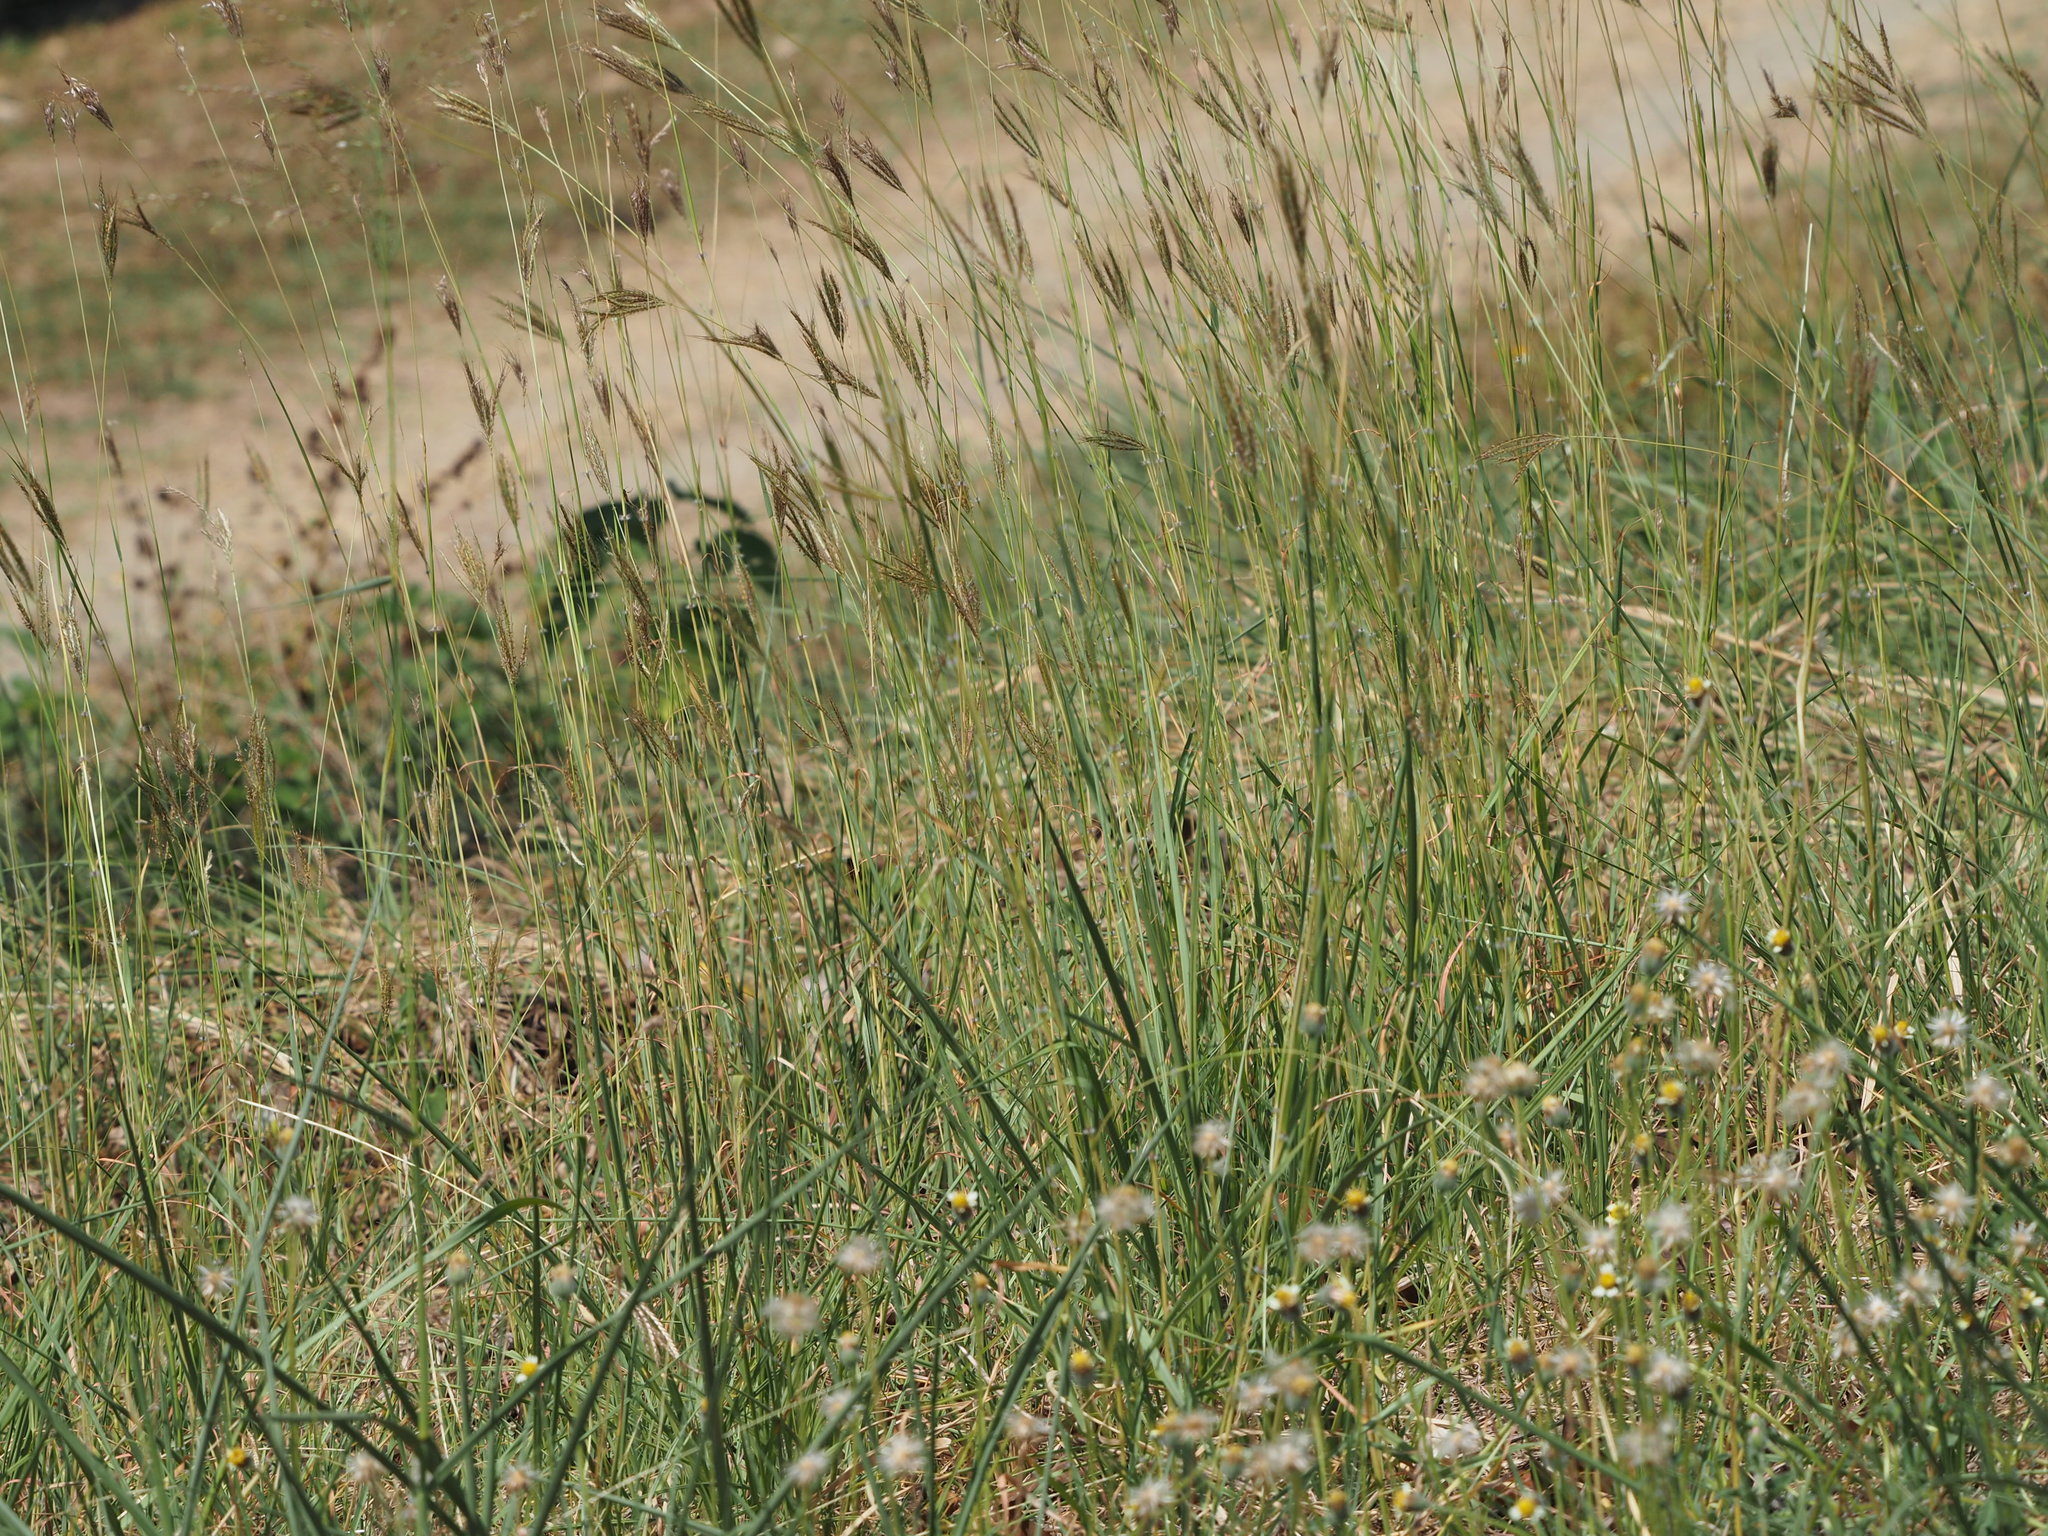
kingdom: Plantae
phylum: Tracheophyta
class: Liliopsida
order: Poales
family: Poaceae
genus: Dichanthium
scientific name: Dichanthium annulatum
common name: Kleberg's bluestem
